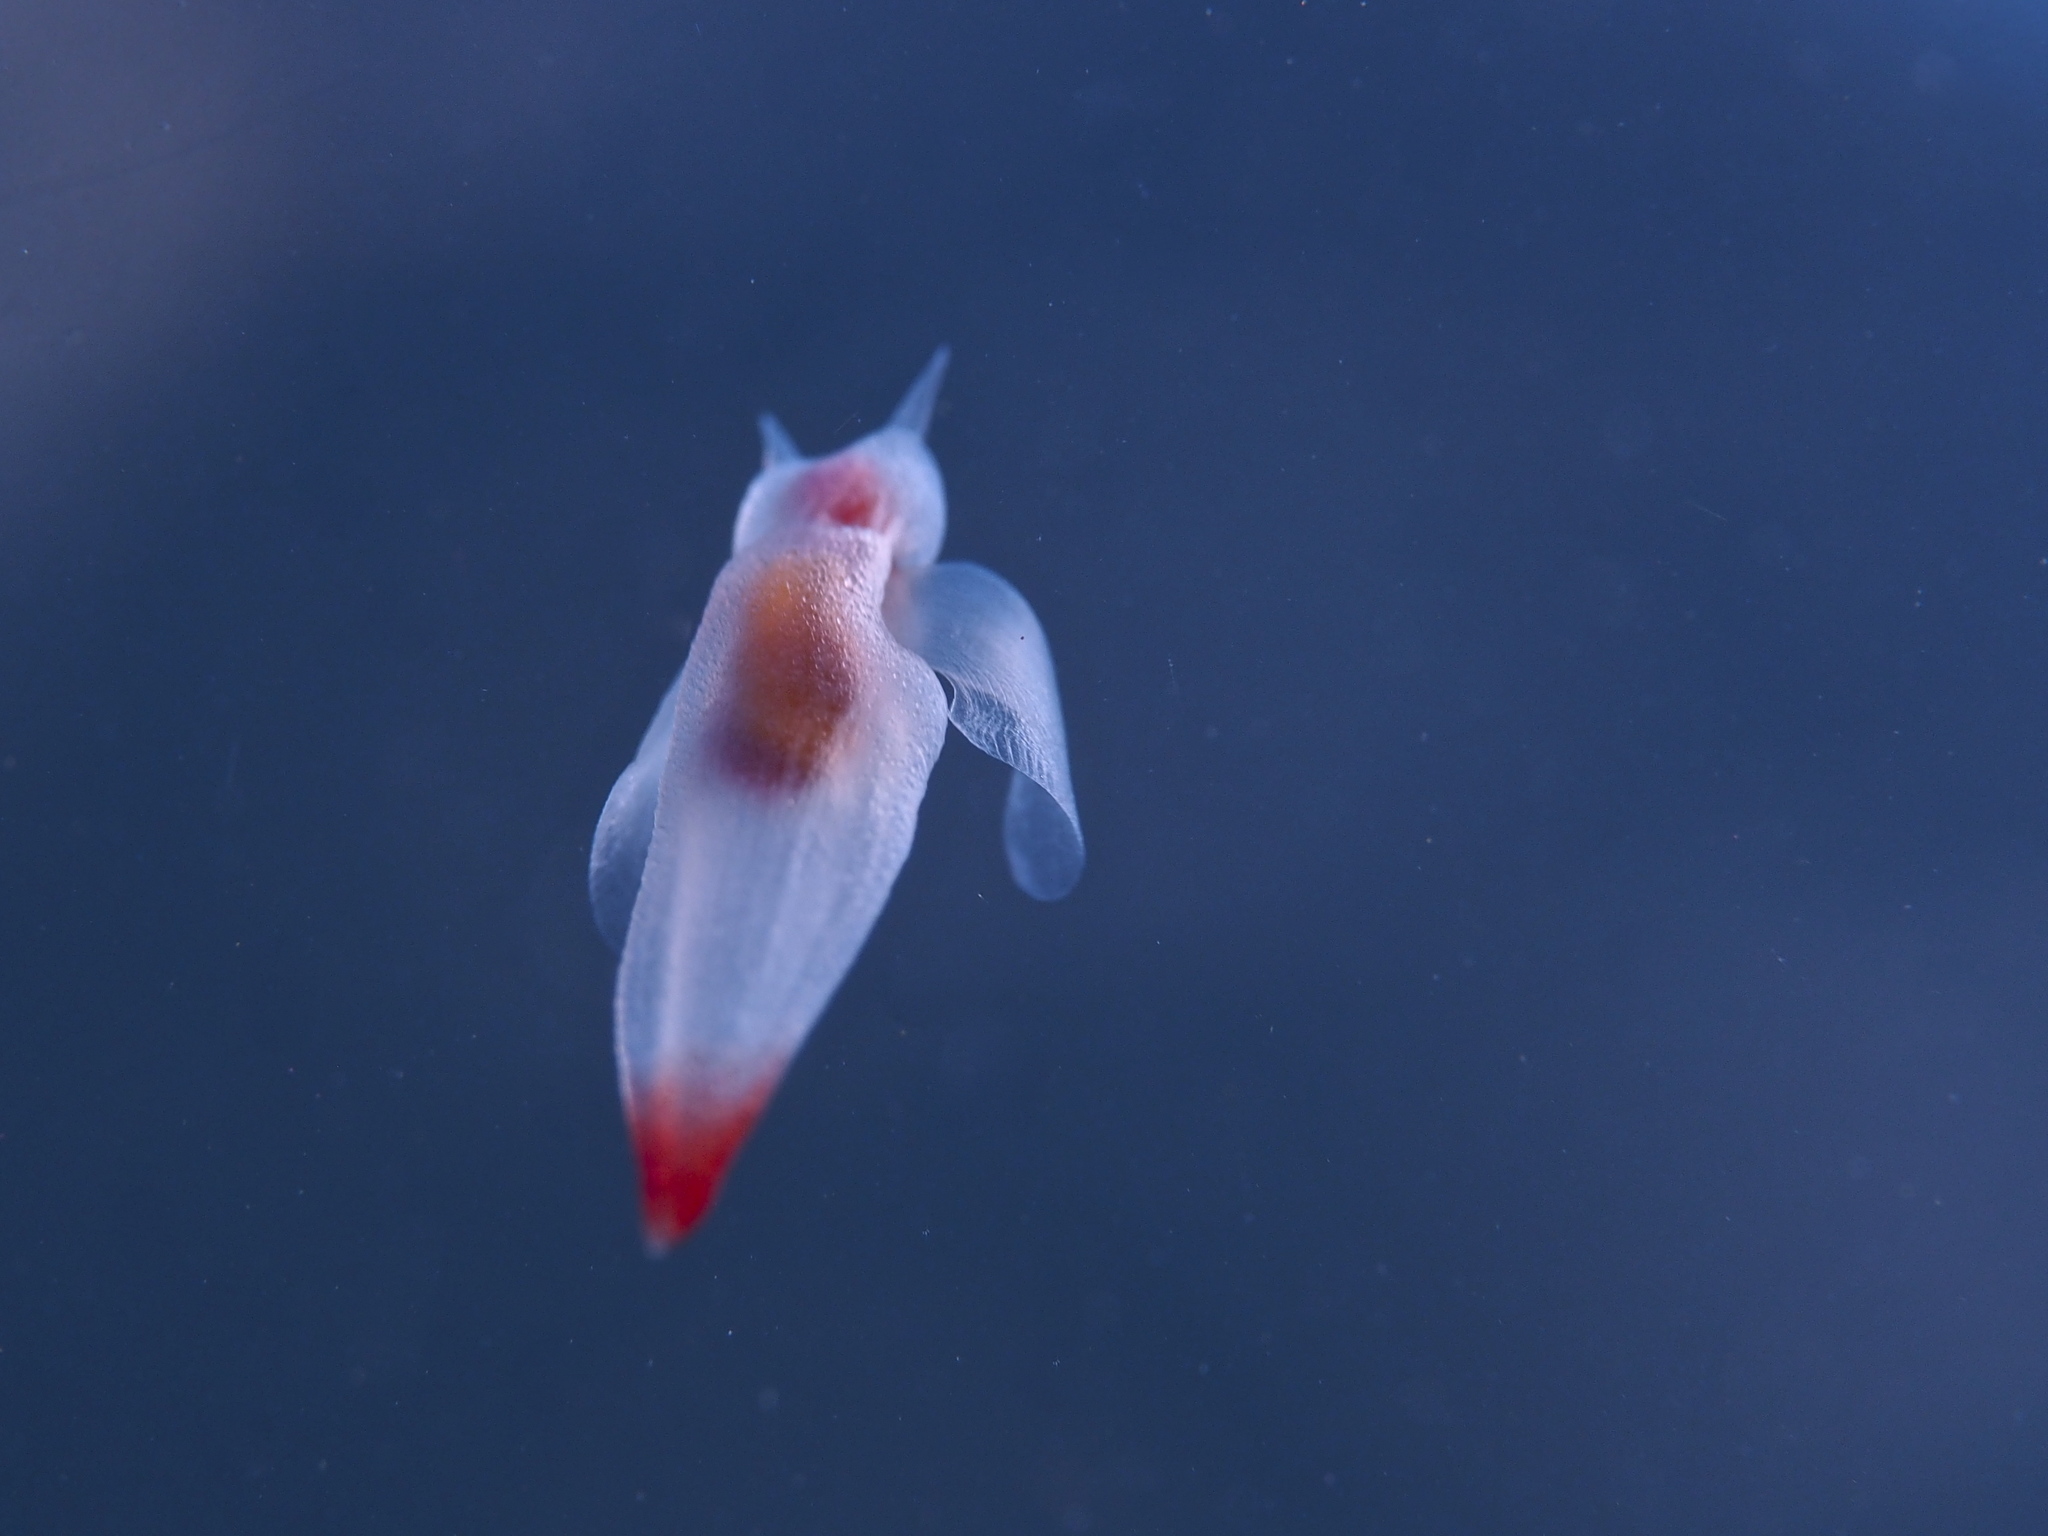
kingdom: Animalia
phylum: Mollusca
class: Gastropoda
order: Pteropoda
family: Clionidae
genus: Clione
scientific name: Clione limacina
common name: Common clione
